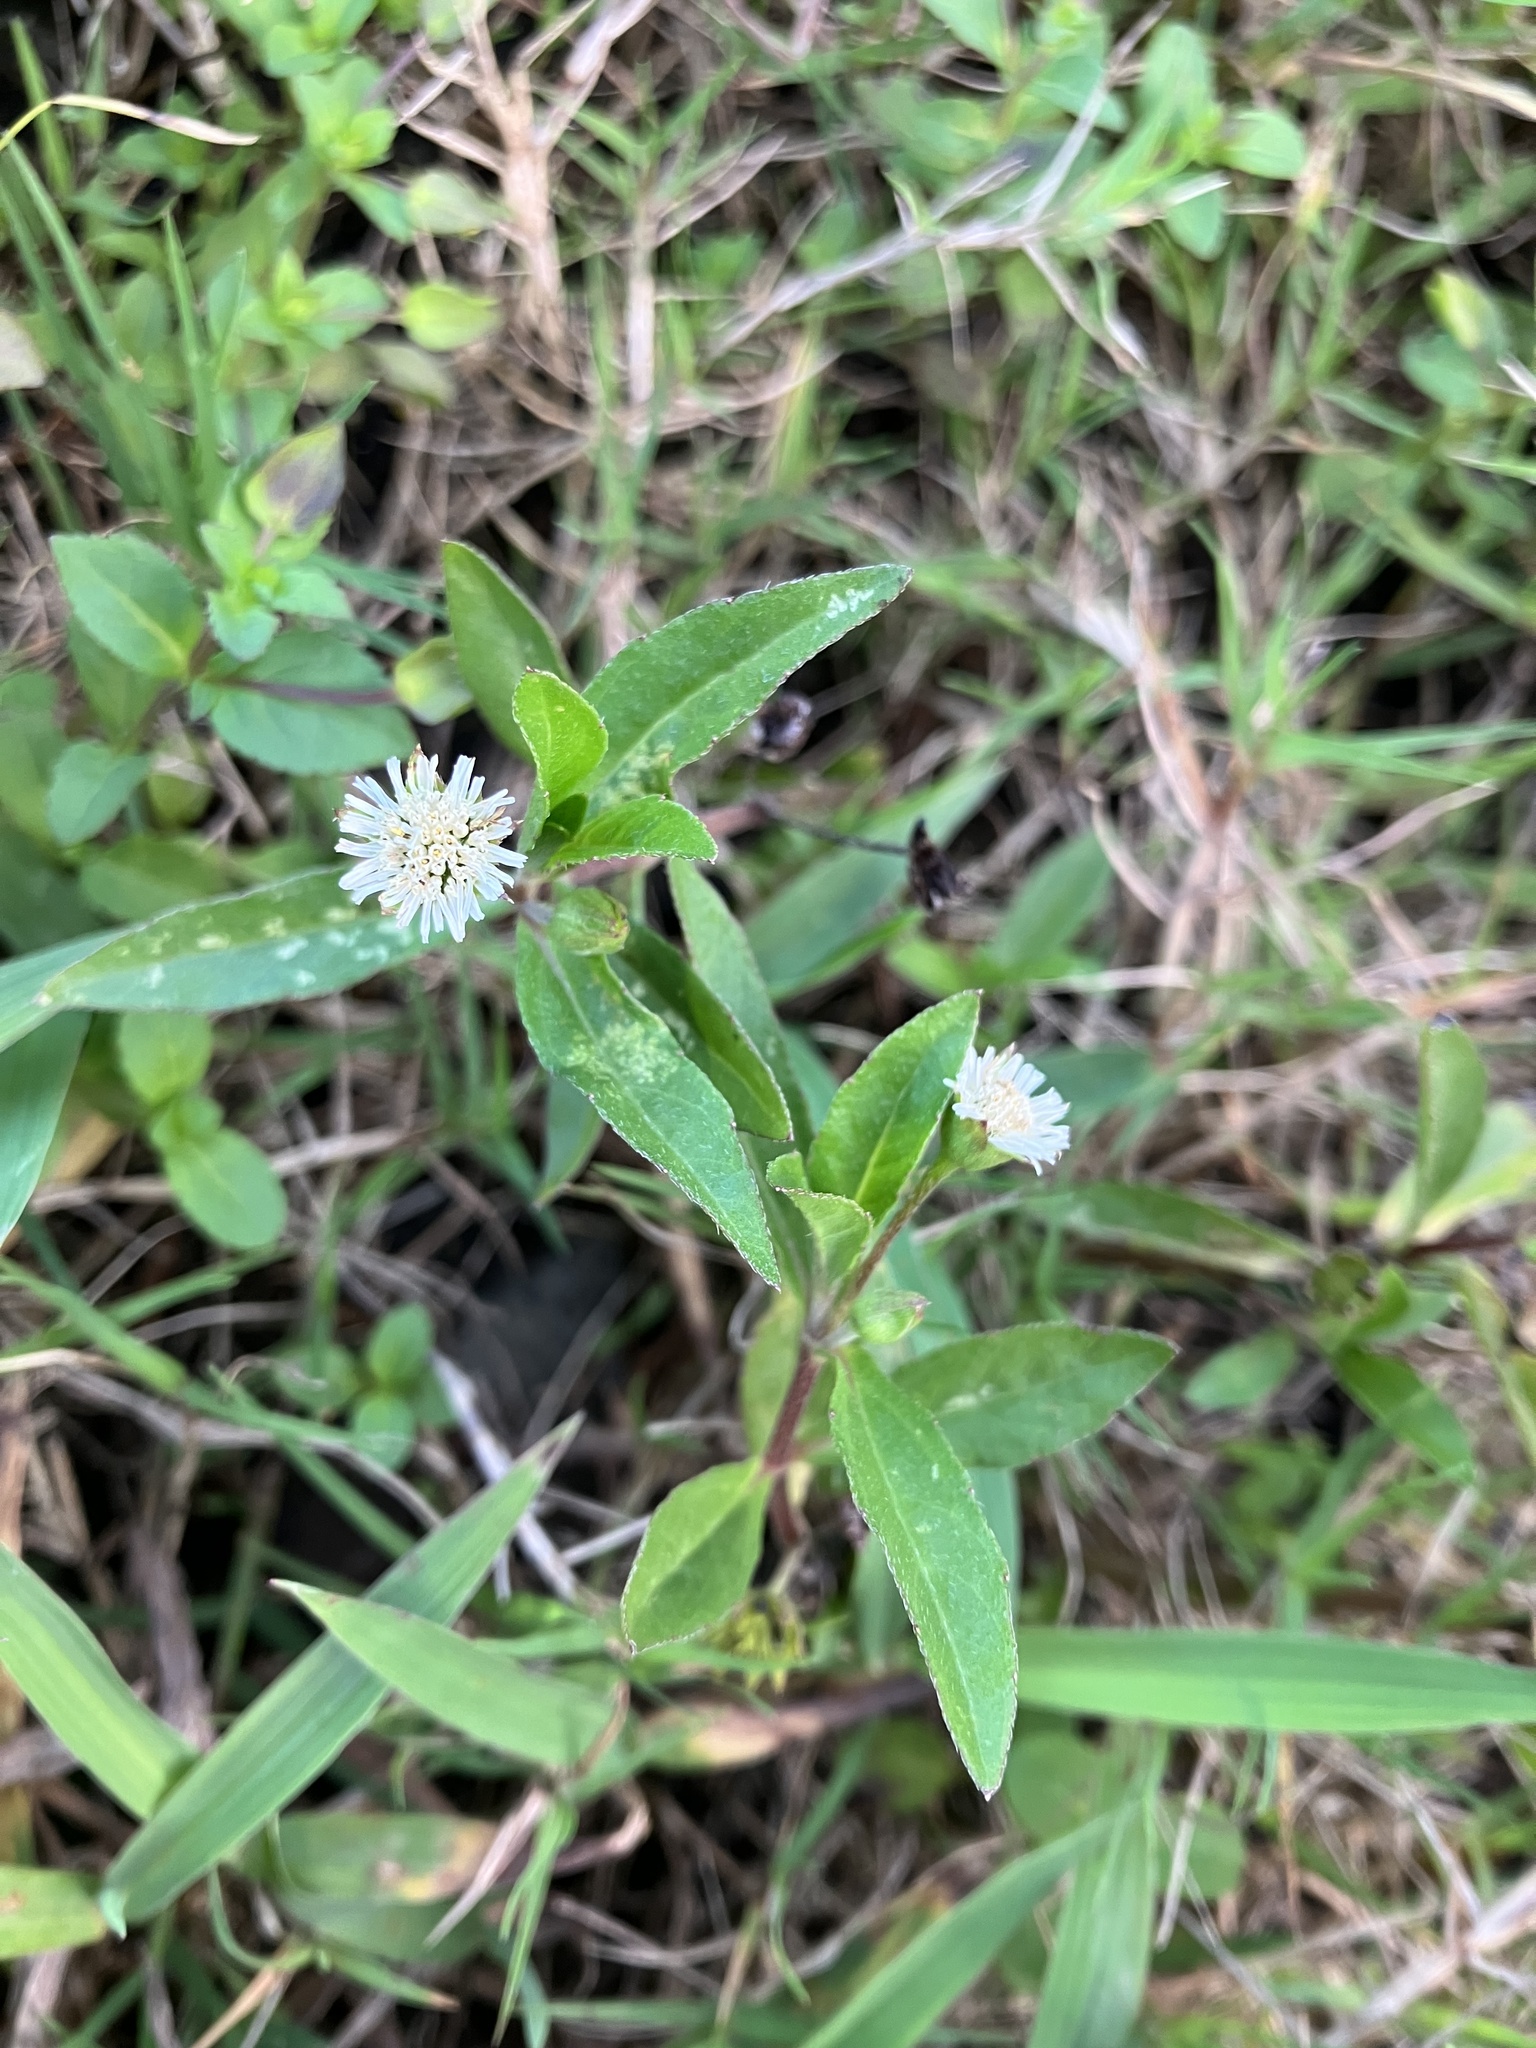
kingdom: Plantae
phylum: Tracheophyta
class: Magnoliopsida
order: Asterales
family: Asteraceae
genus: Eclipta
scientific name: Eclipta prostrata
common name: False daisy
